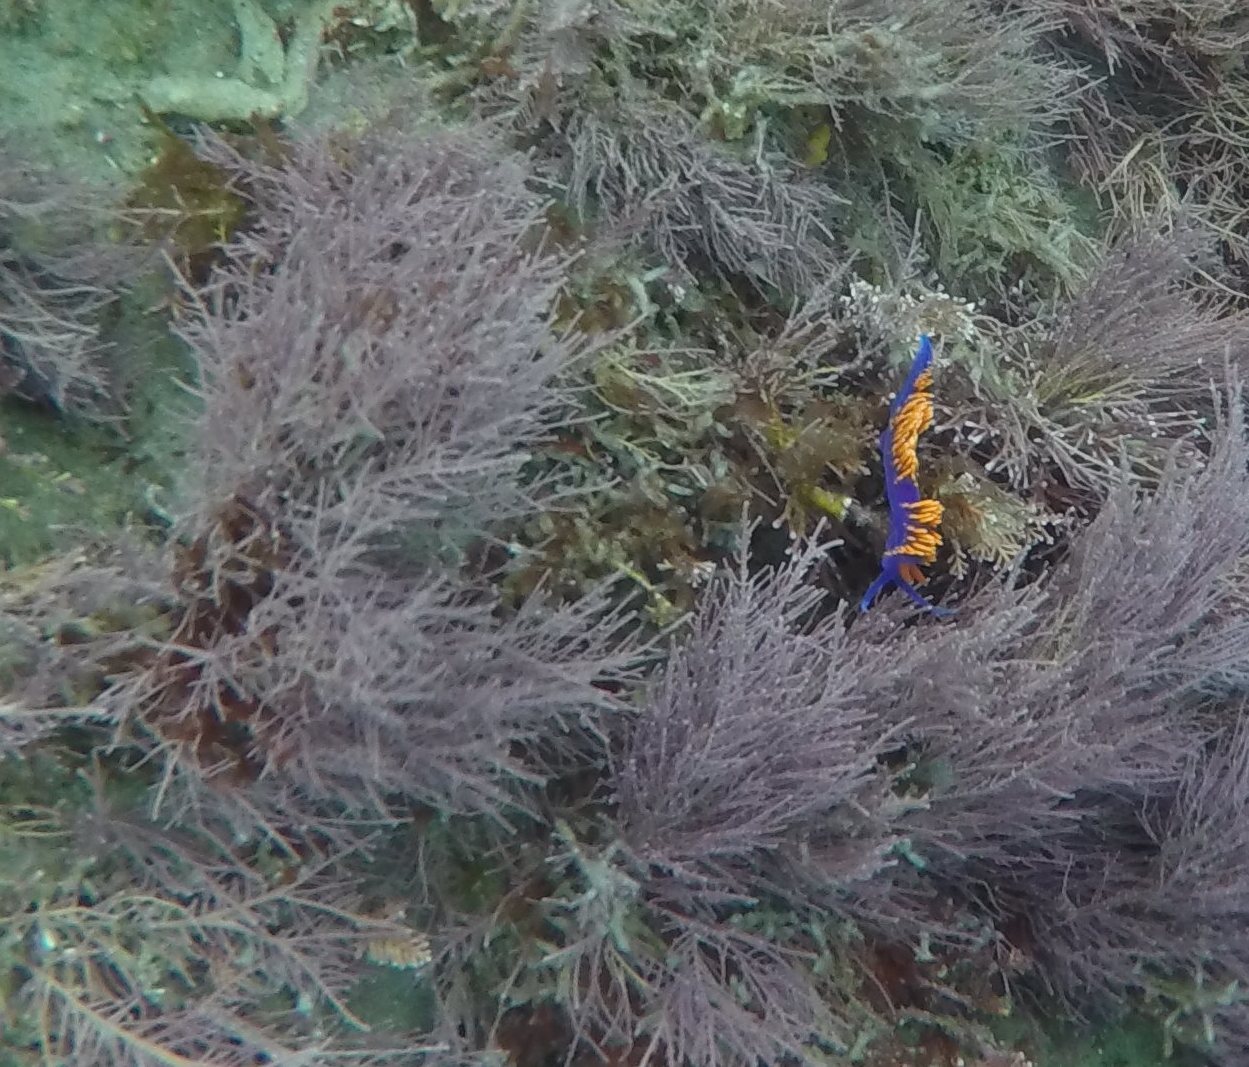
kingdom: Animalia
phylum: Mollusca
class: Gastropoda
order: Nudibranchia
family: Flabellinopsidae
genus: Flabellinopsis
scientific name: Flabellinopsis iodinea
